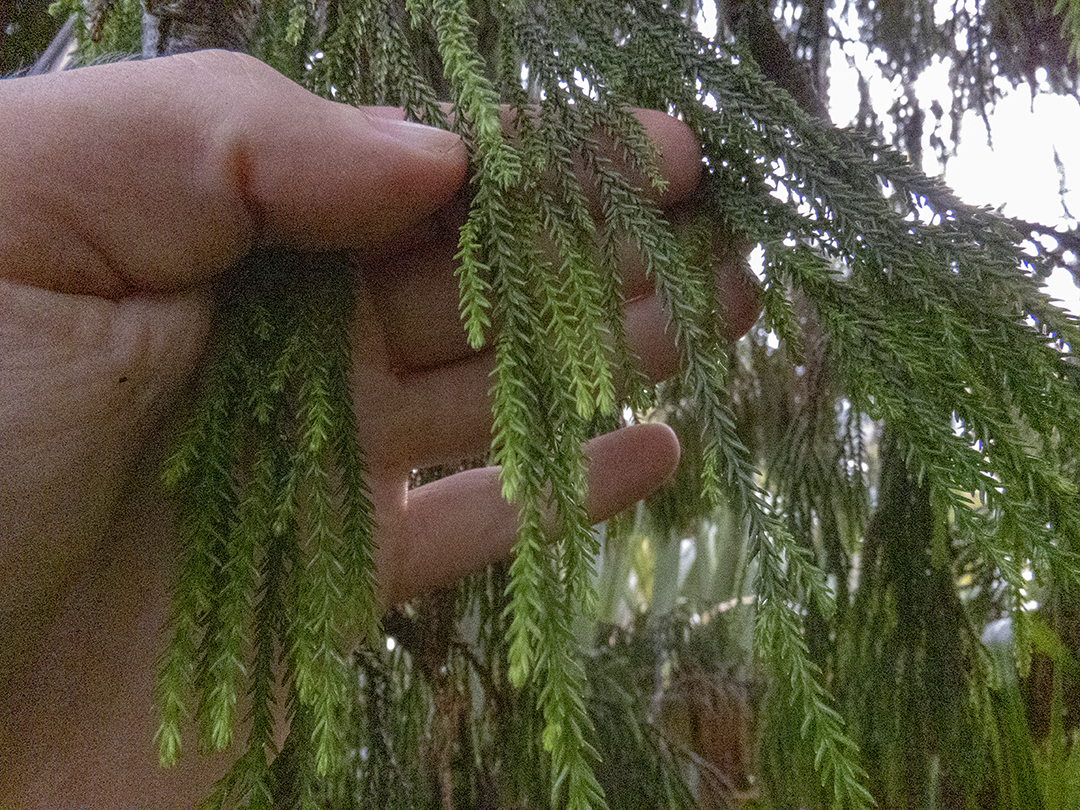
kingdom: Plantae
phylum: Tracheophyta
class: Pinopsida
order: Pinales
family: Podocarpaceae
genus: Dacrydium
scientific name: Dacrydium cupressinum
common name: Red pine
